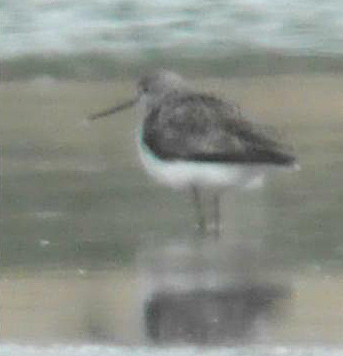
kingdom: Animalia
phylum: Chordata
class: Aves
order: Charadriiformes
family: Scolopacidae
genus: Tringa
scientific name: Tringa stagnatilis
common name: Marsh sandpiper
